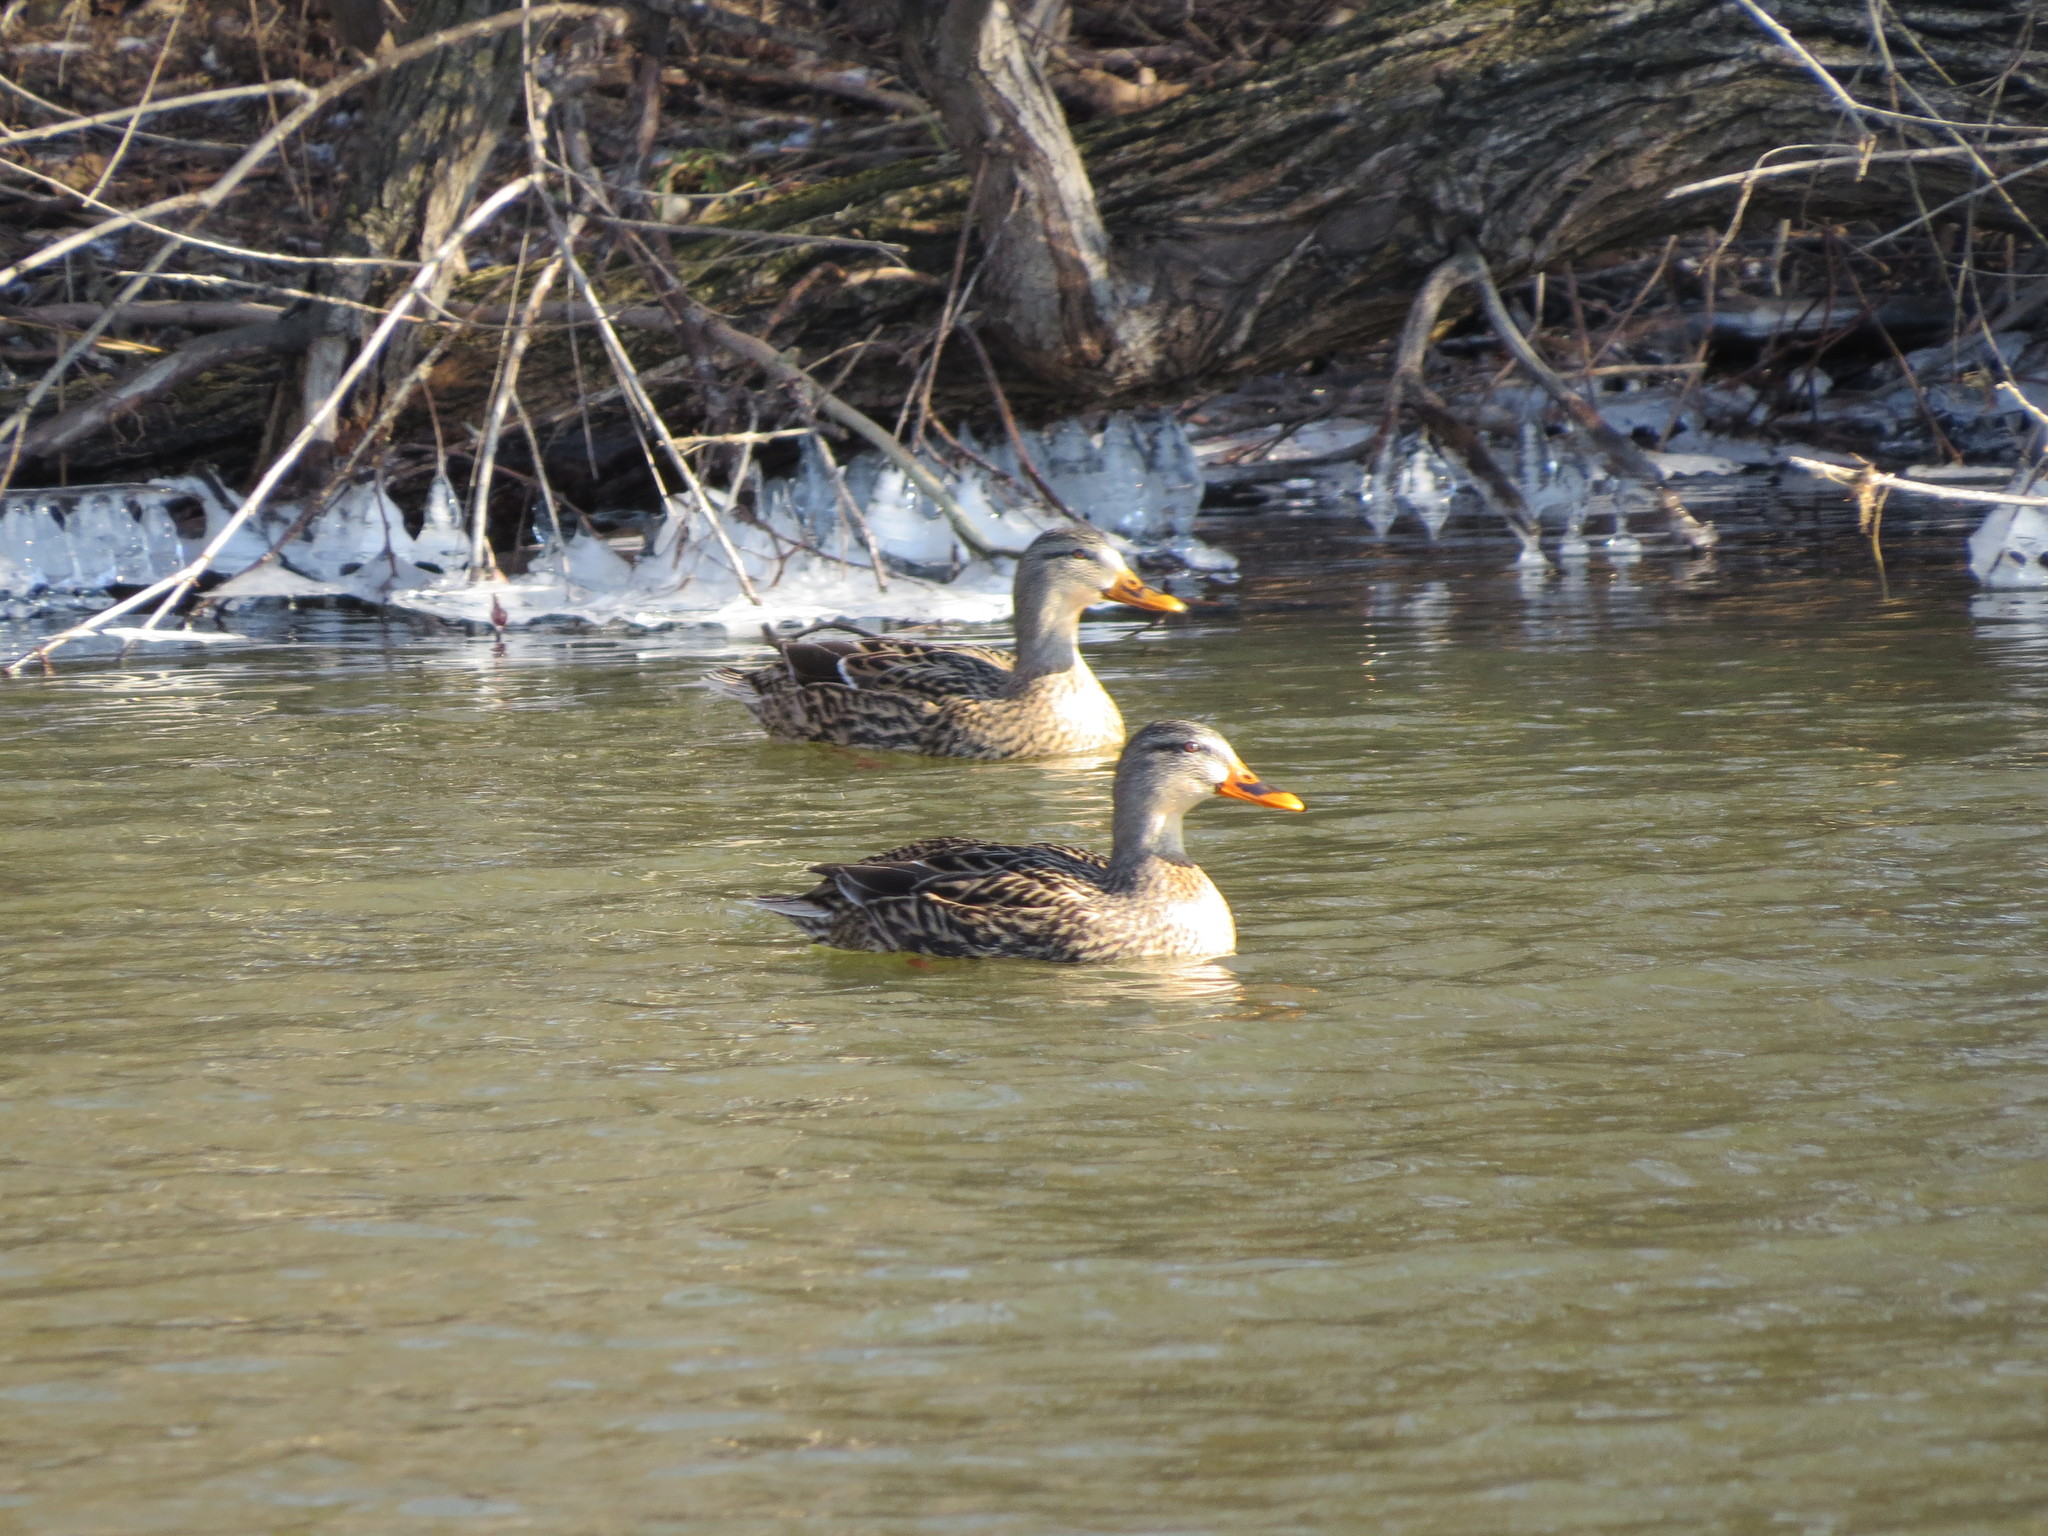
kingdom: Animalia
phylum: Chordata
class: Aves
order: Anseriformes
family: Anatidae
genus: Anas
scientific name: Anas platyrhynchos
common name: Mallard
